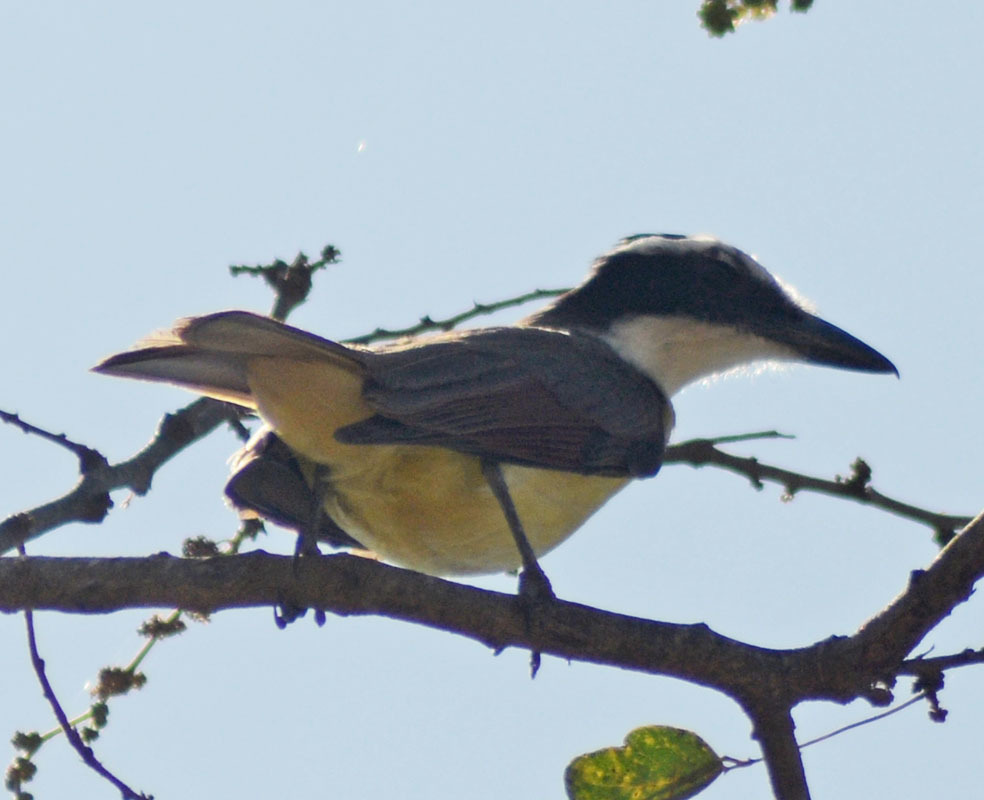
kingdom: Animalia
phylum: Chordata
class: Aves
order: Passeriformes
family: Tyrannidae
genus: Pitangus
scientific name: Pitangus sulphuratus
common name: Great kiskadee
